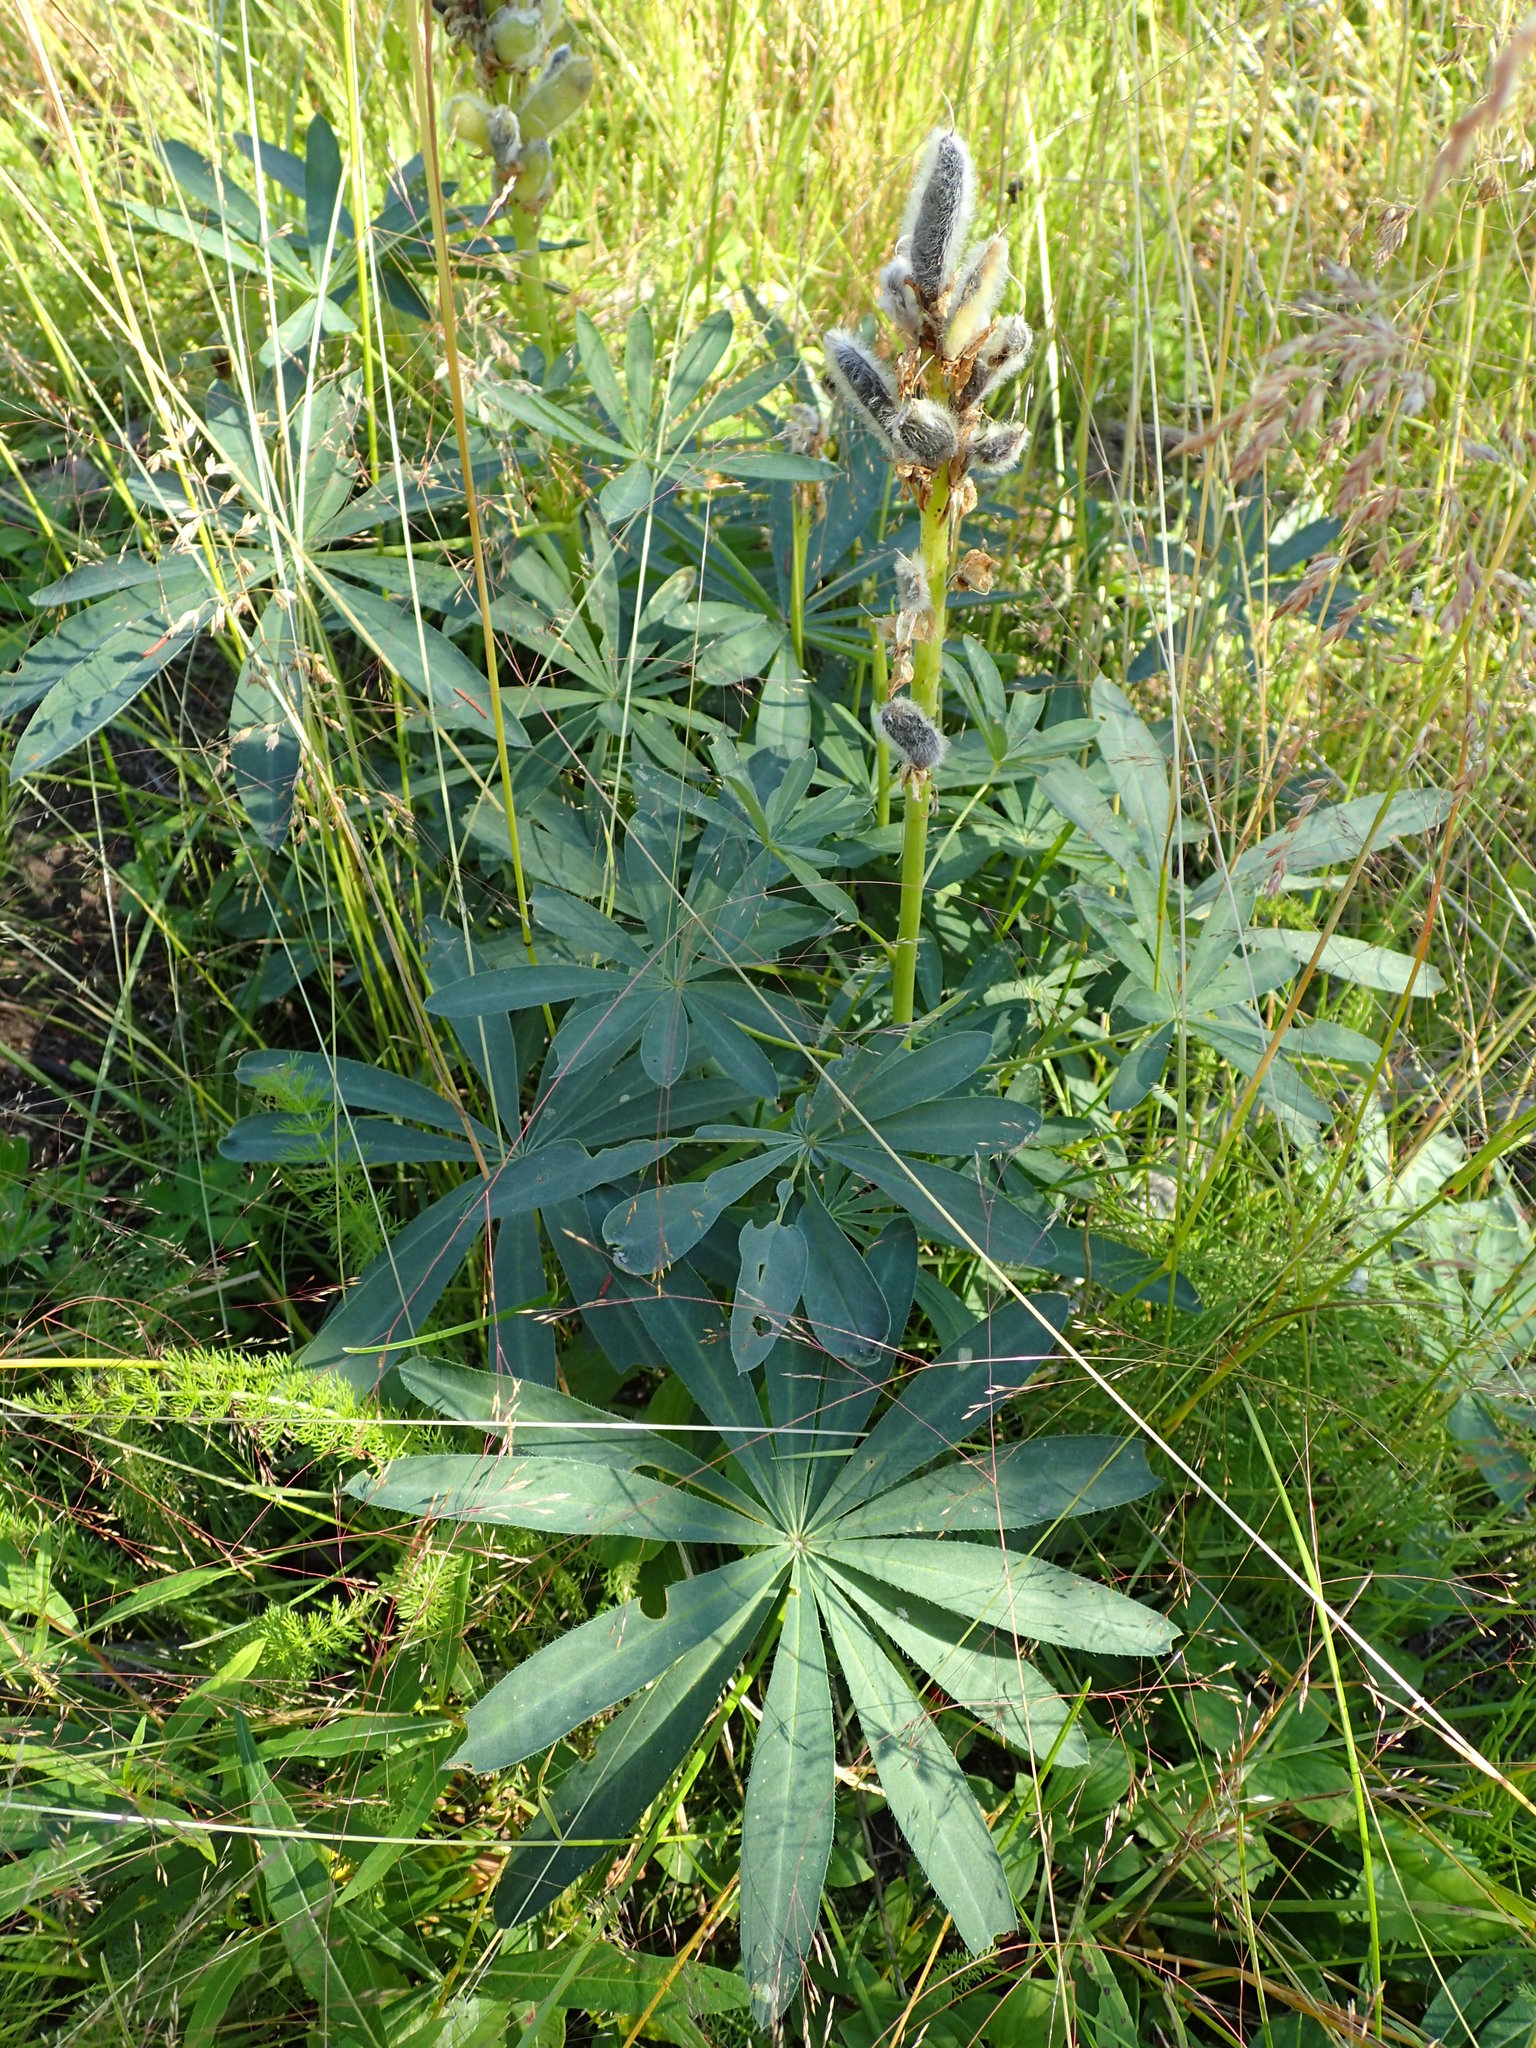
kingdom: Plantae
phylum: Tracheophyta
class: Magnoliopsida
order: Fabales
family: Fabaceae
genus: Lupinus
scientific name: Lupinus polyphyllus
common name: Garden lupin
